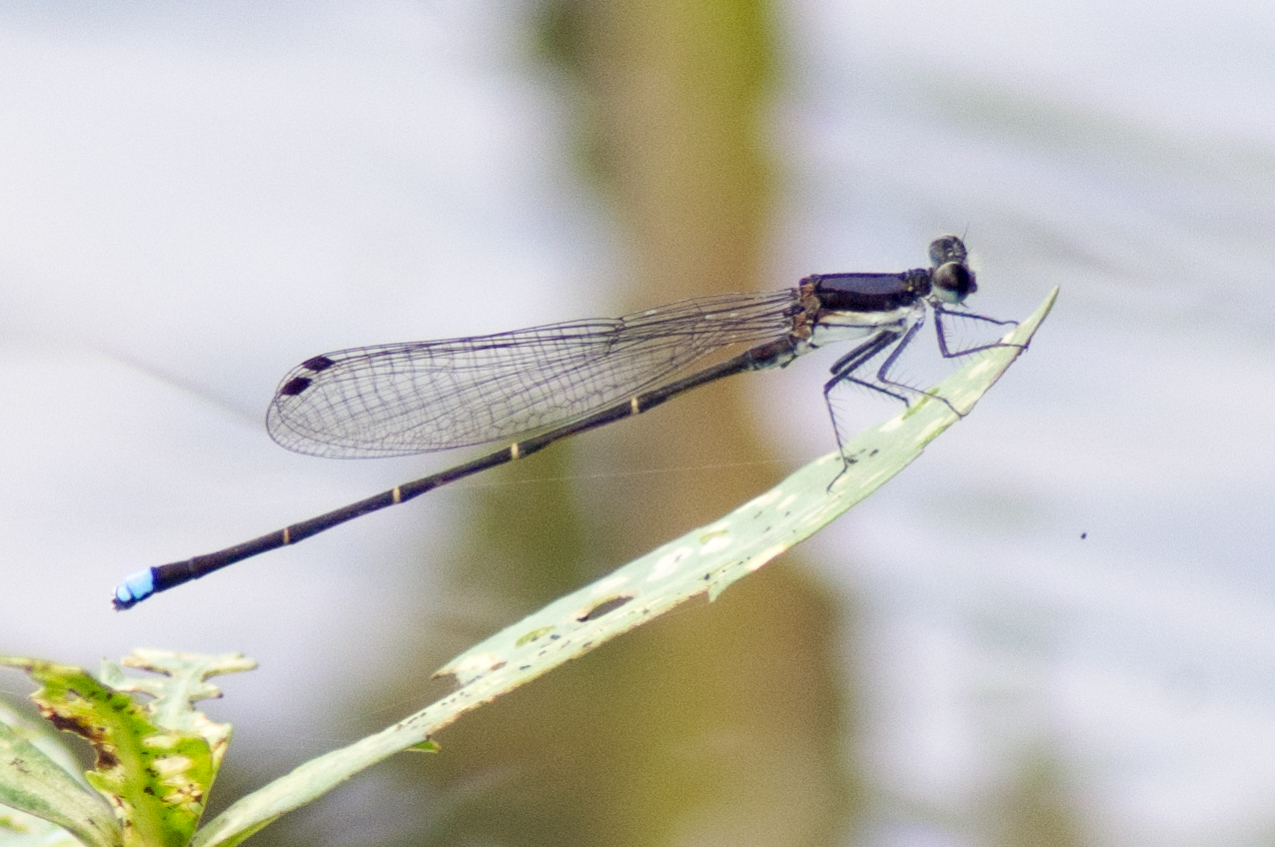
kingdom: Animalia
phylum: Arthropoda
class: Insecta
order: Odonata
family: Coenagrionidae
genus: Argia
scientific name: Argia tibialis
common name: Blue-tipped dancer
